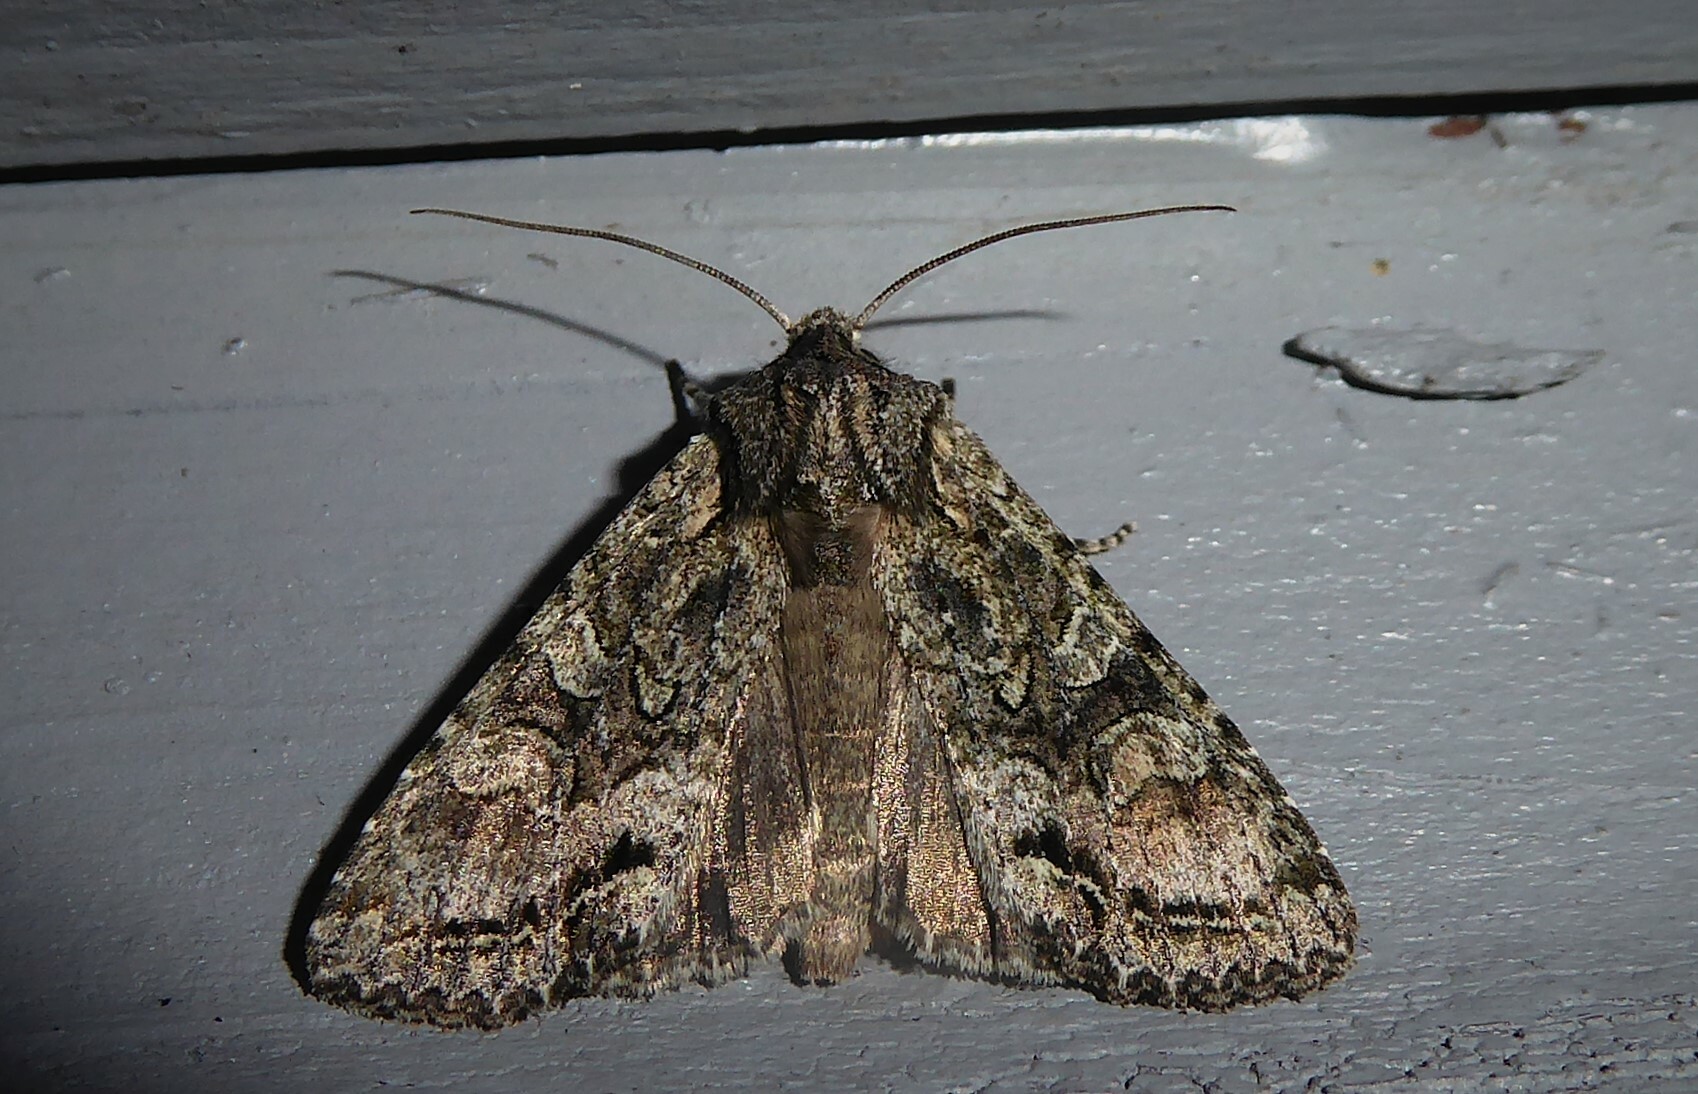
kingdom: Animalia
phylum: Arthropoda
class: Insecta
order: Lepidoptera
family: Noctuidae
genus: Ichneutica
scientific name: Ichneutica mutans
